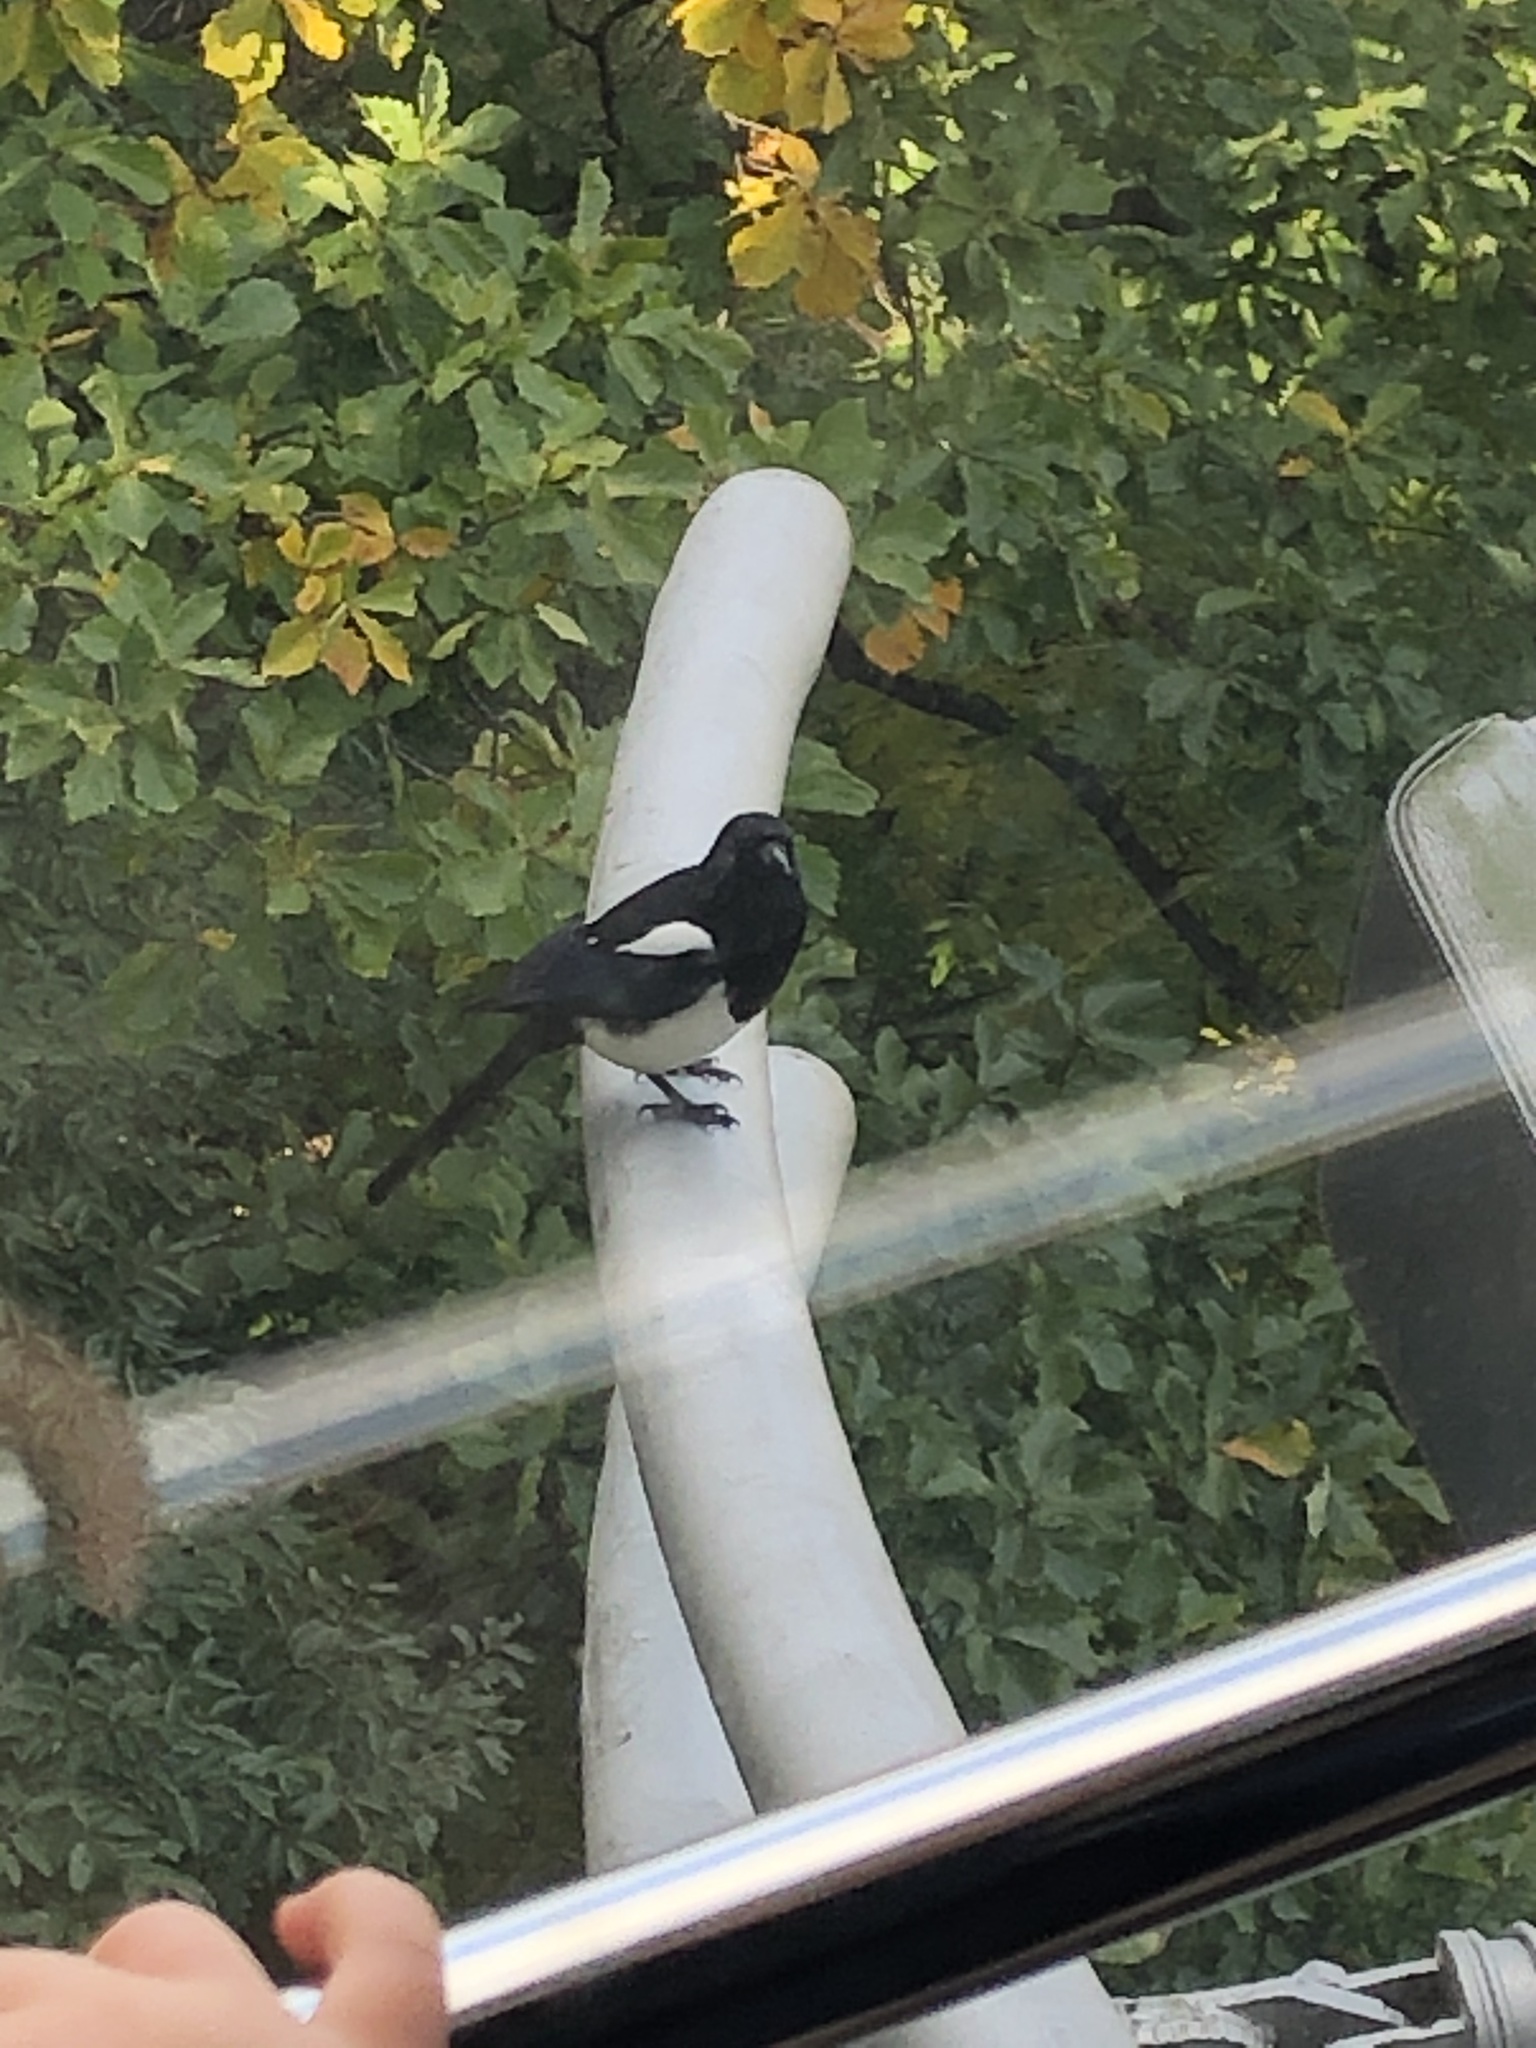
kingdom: Animalia
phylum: Chordata
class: Aves
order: Passeriformes
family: Corvidae
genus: Pica
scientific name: Pica serica
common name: Oriental magpie
